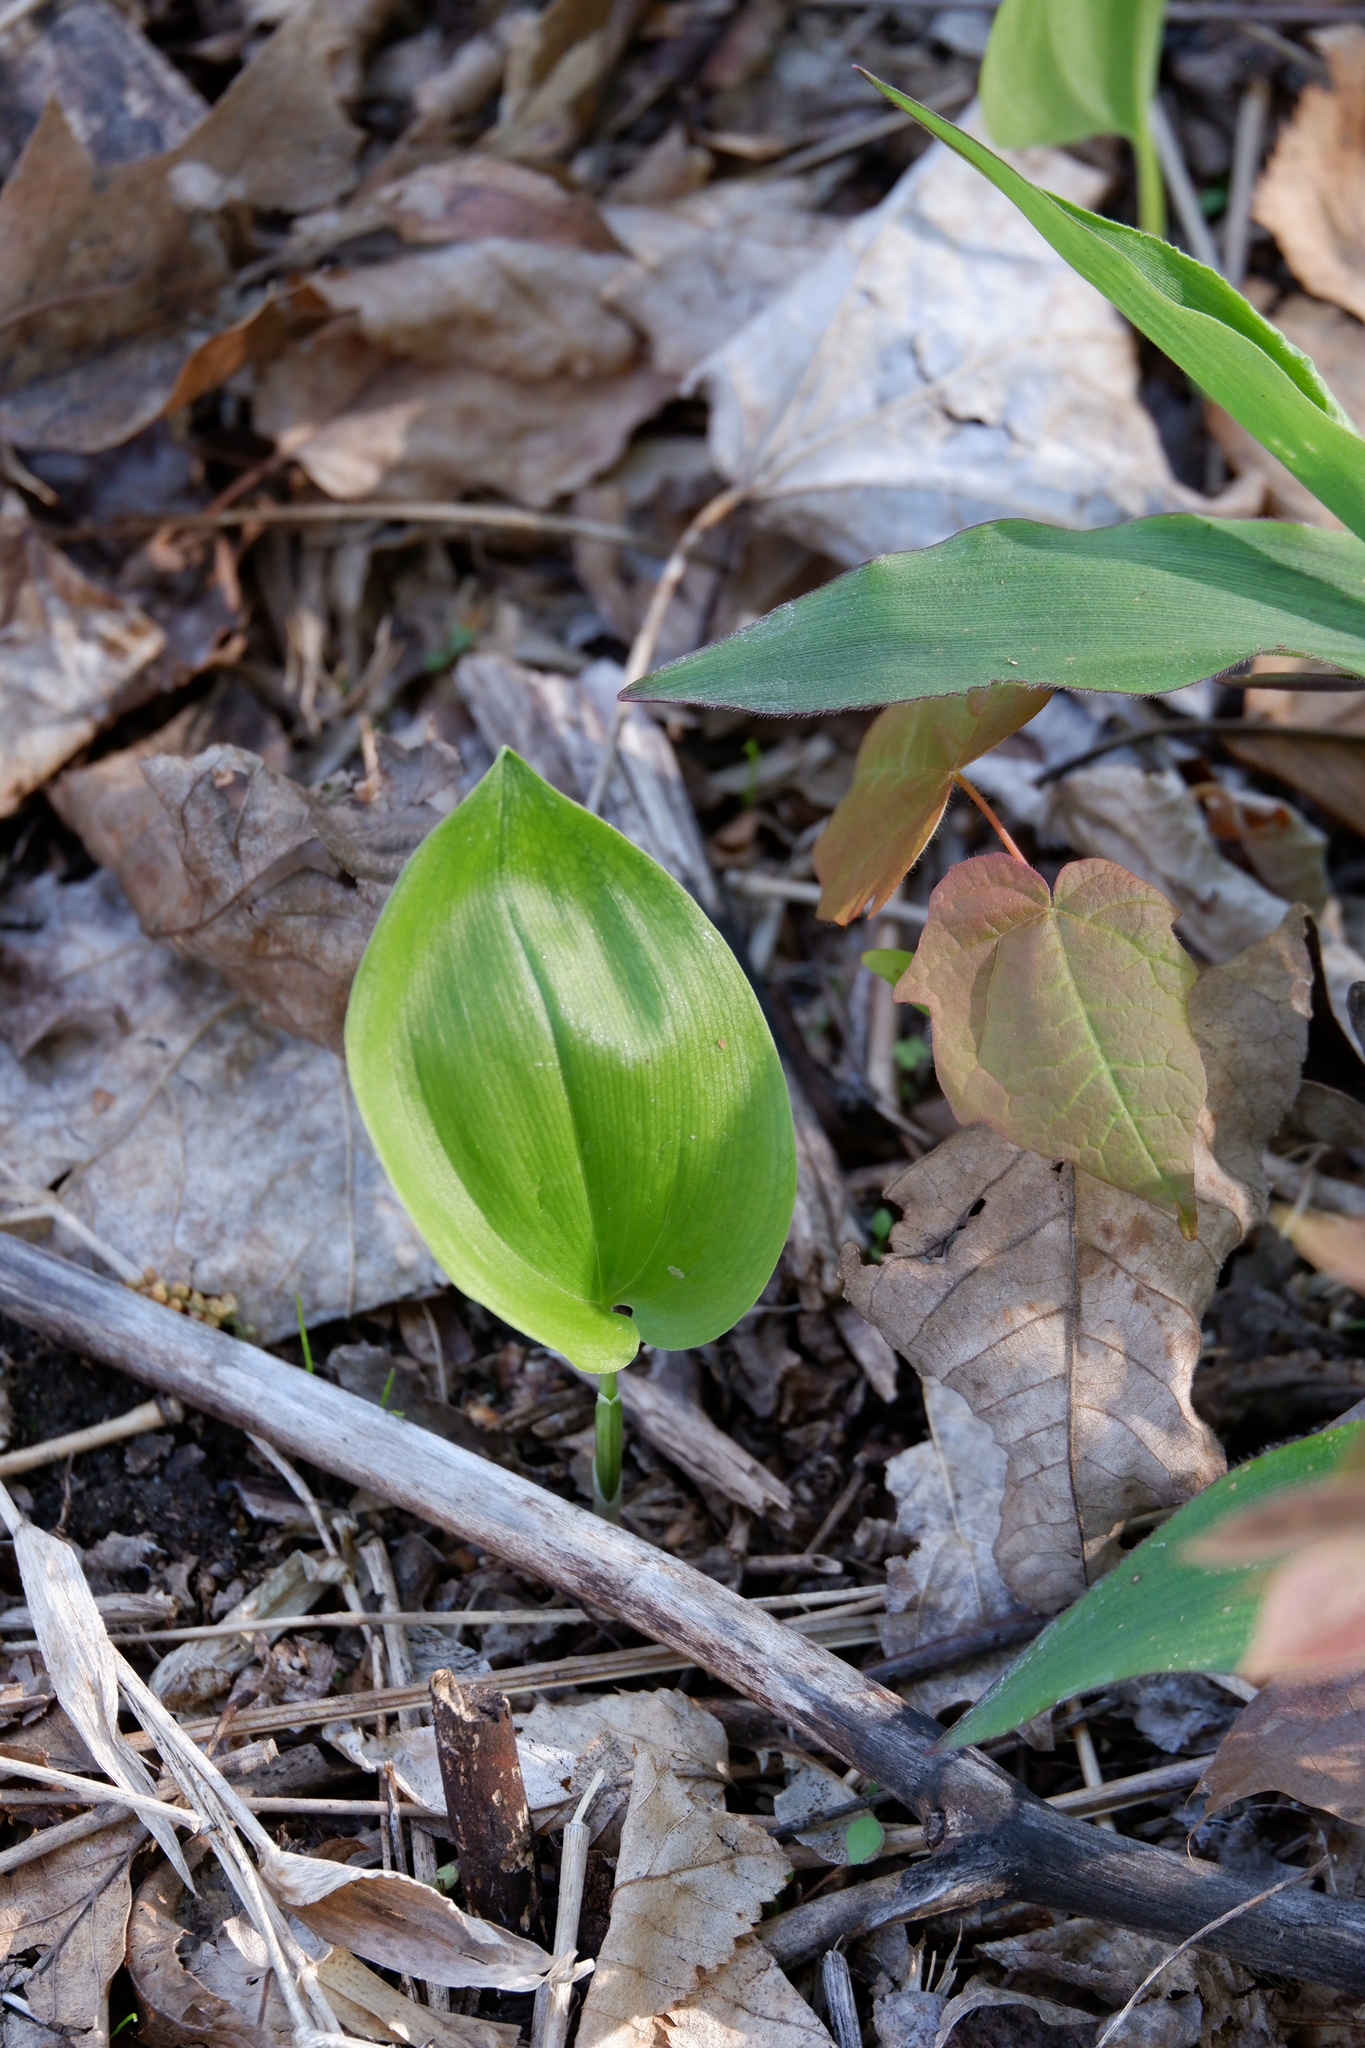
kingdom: Plantae
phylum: Tracheophyta
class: Liliopsida
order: Asparagales
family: Asparagaceae
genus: Maianthemum
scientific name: Maianthemum canadense
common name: False lily-of-the-valley
